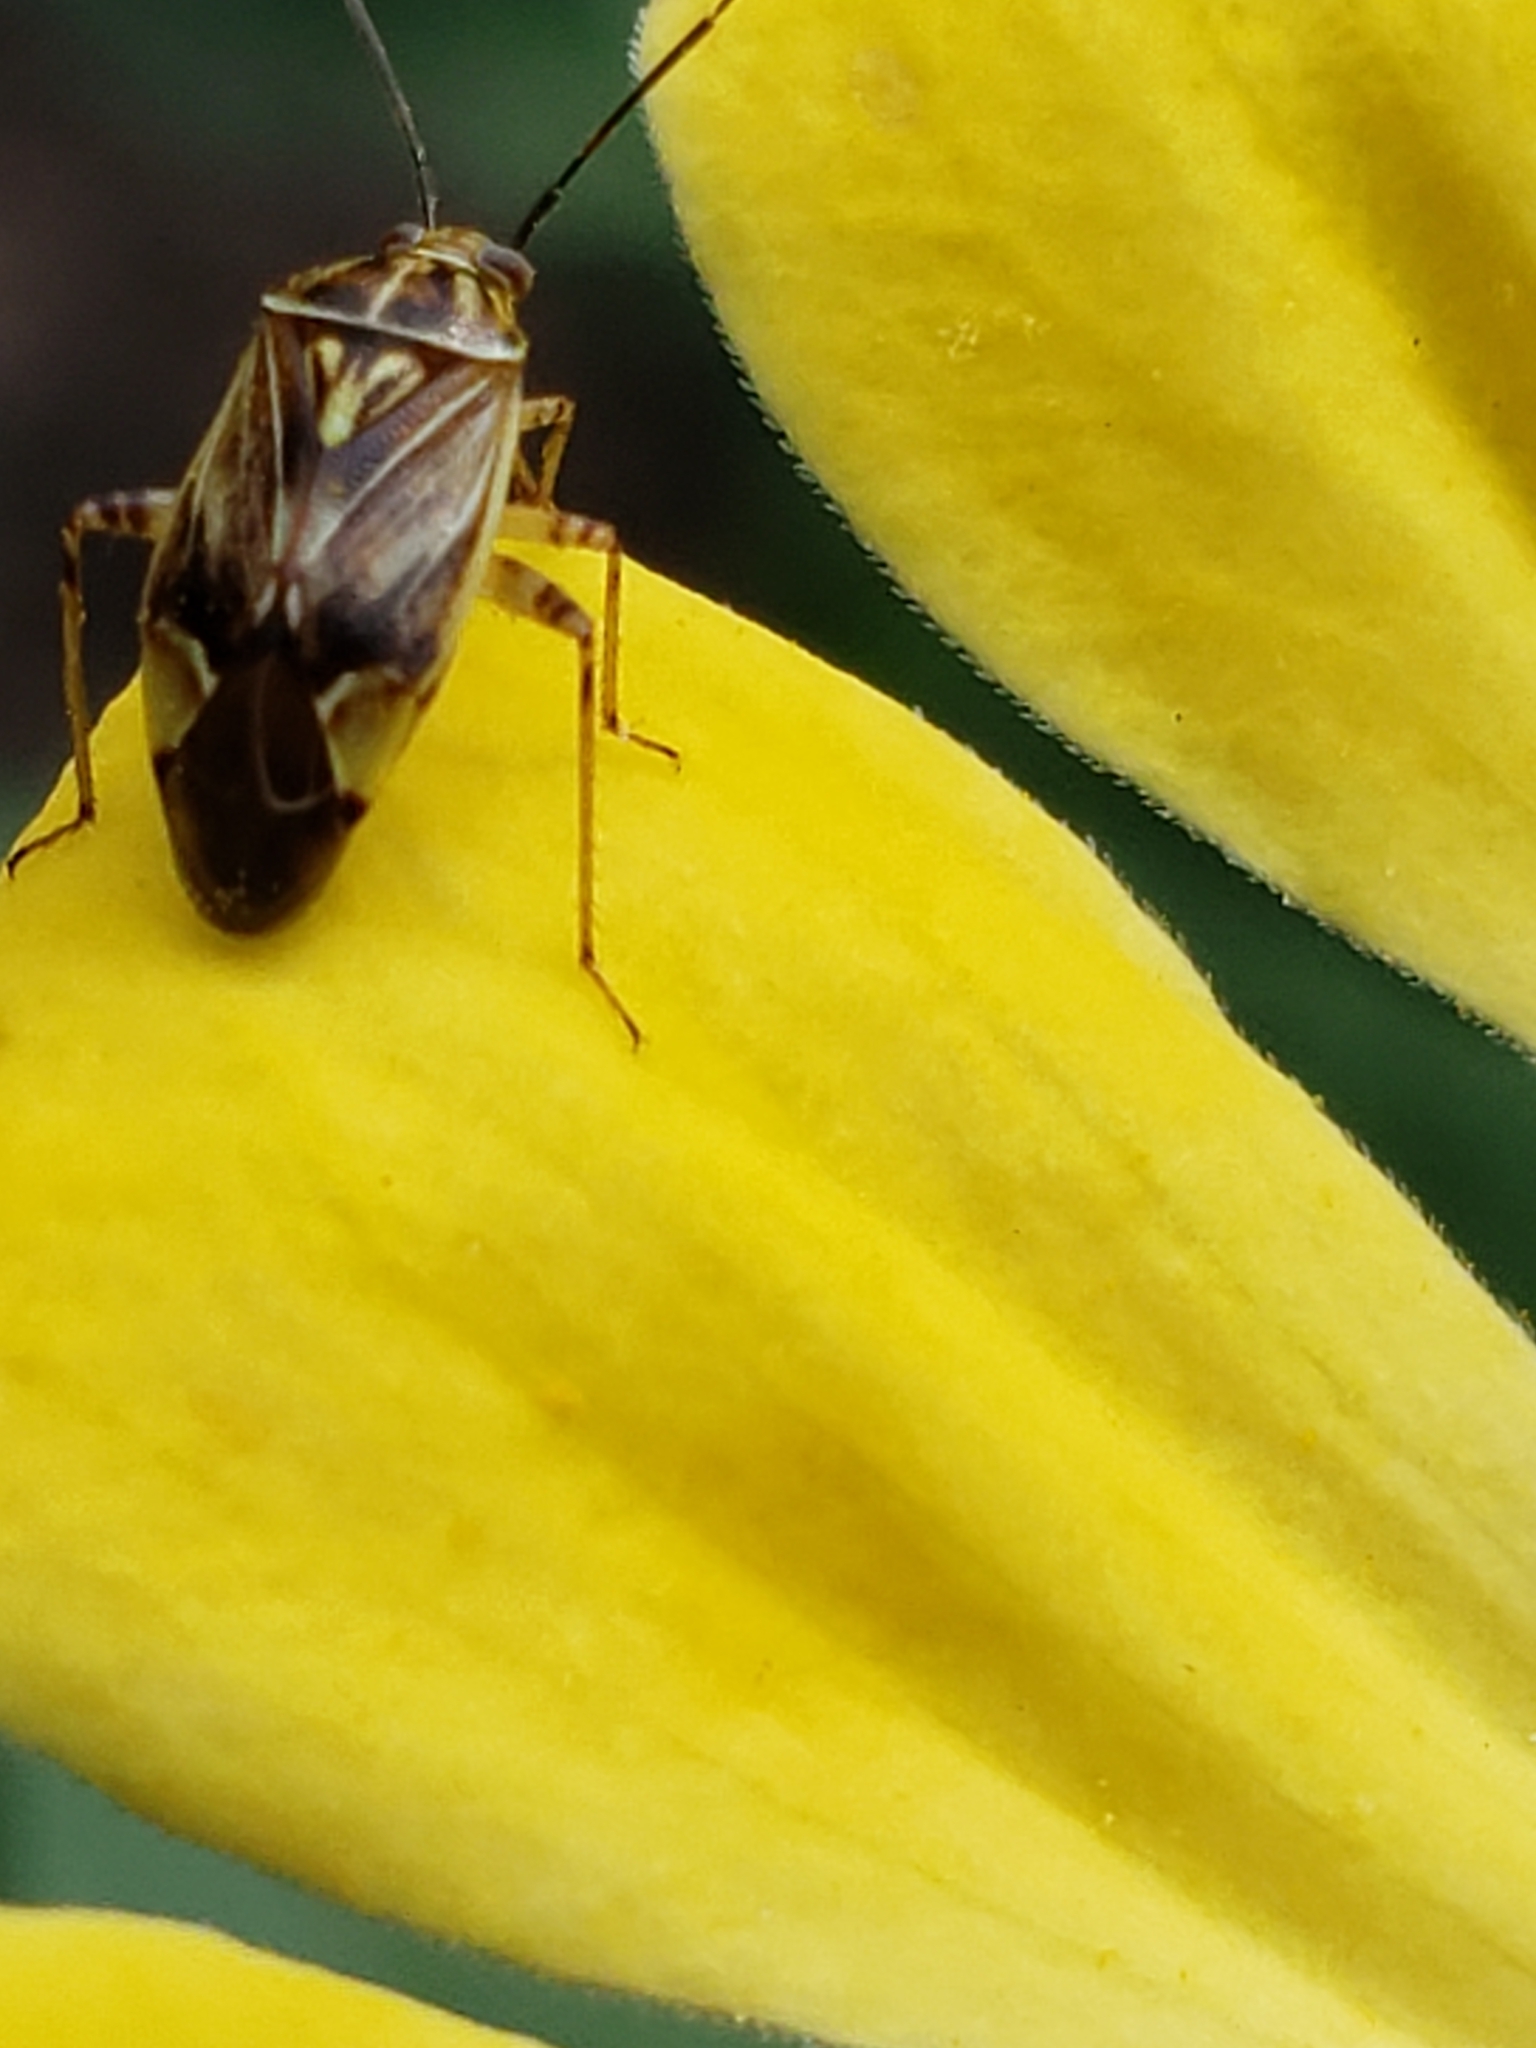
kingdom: Animalia
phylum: Arthropoda
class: Insecta
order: Hemiptera
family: Miridae
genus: Lygus
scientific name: Lygus lineolaris
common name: North american tarnished plant bug
